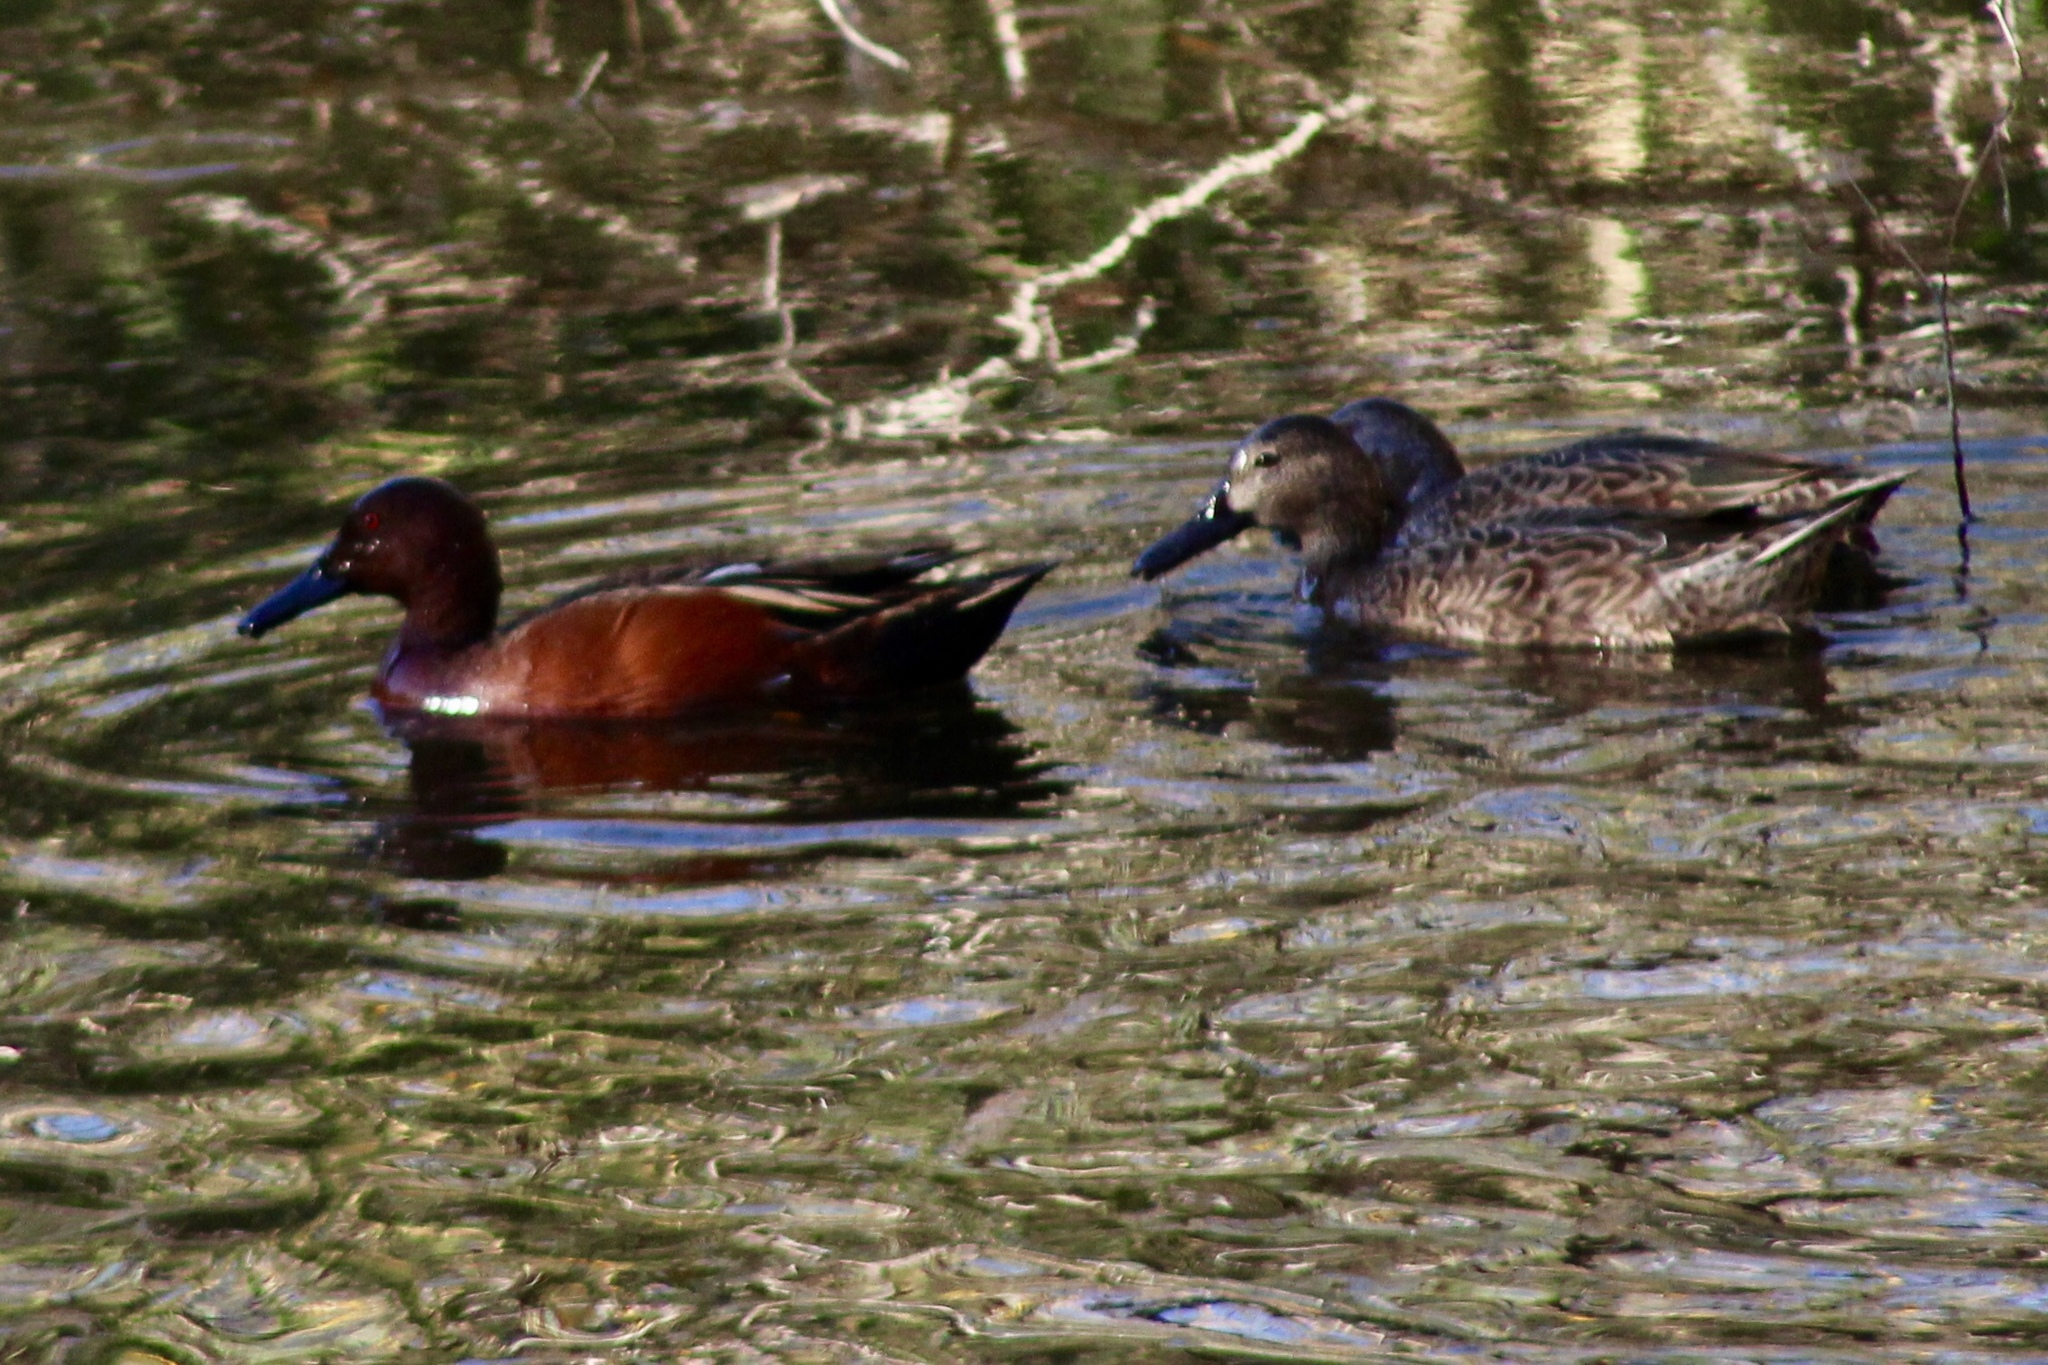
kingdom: Animalia
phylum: Chordata
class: Aves
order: Anseriformes
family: Anatidae
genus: Spatula
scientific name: Spatula cyanoptera
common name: Cinnamon teal
